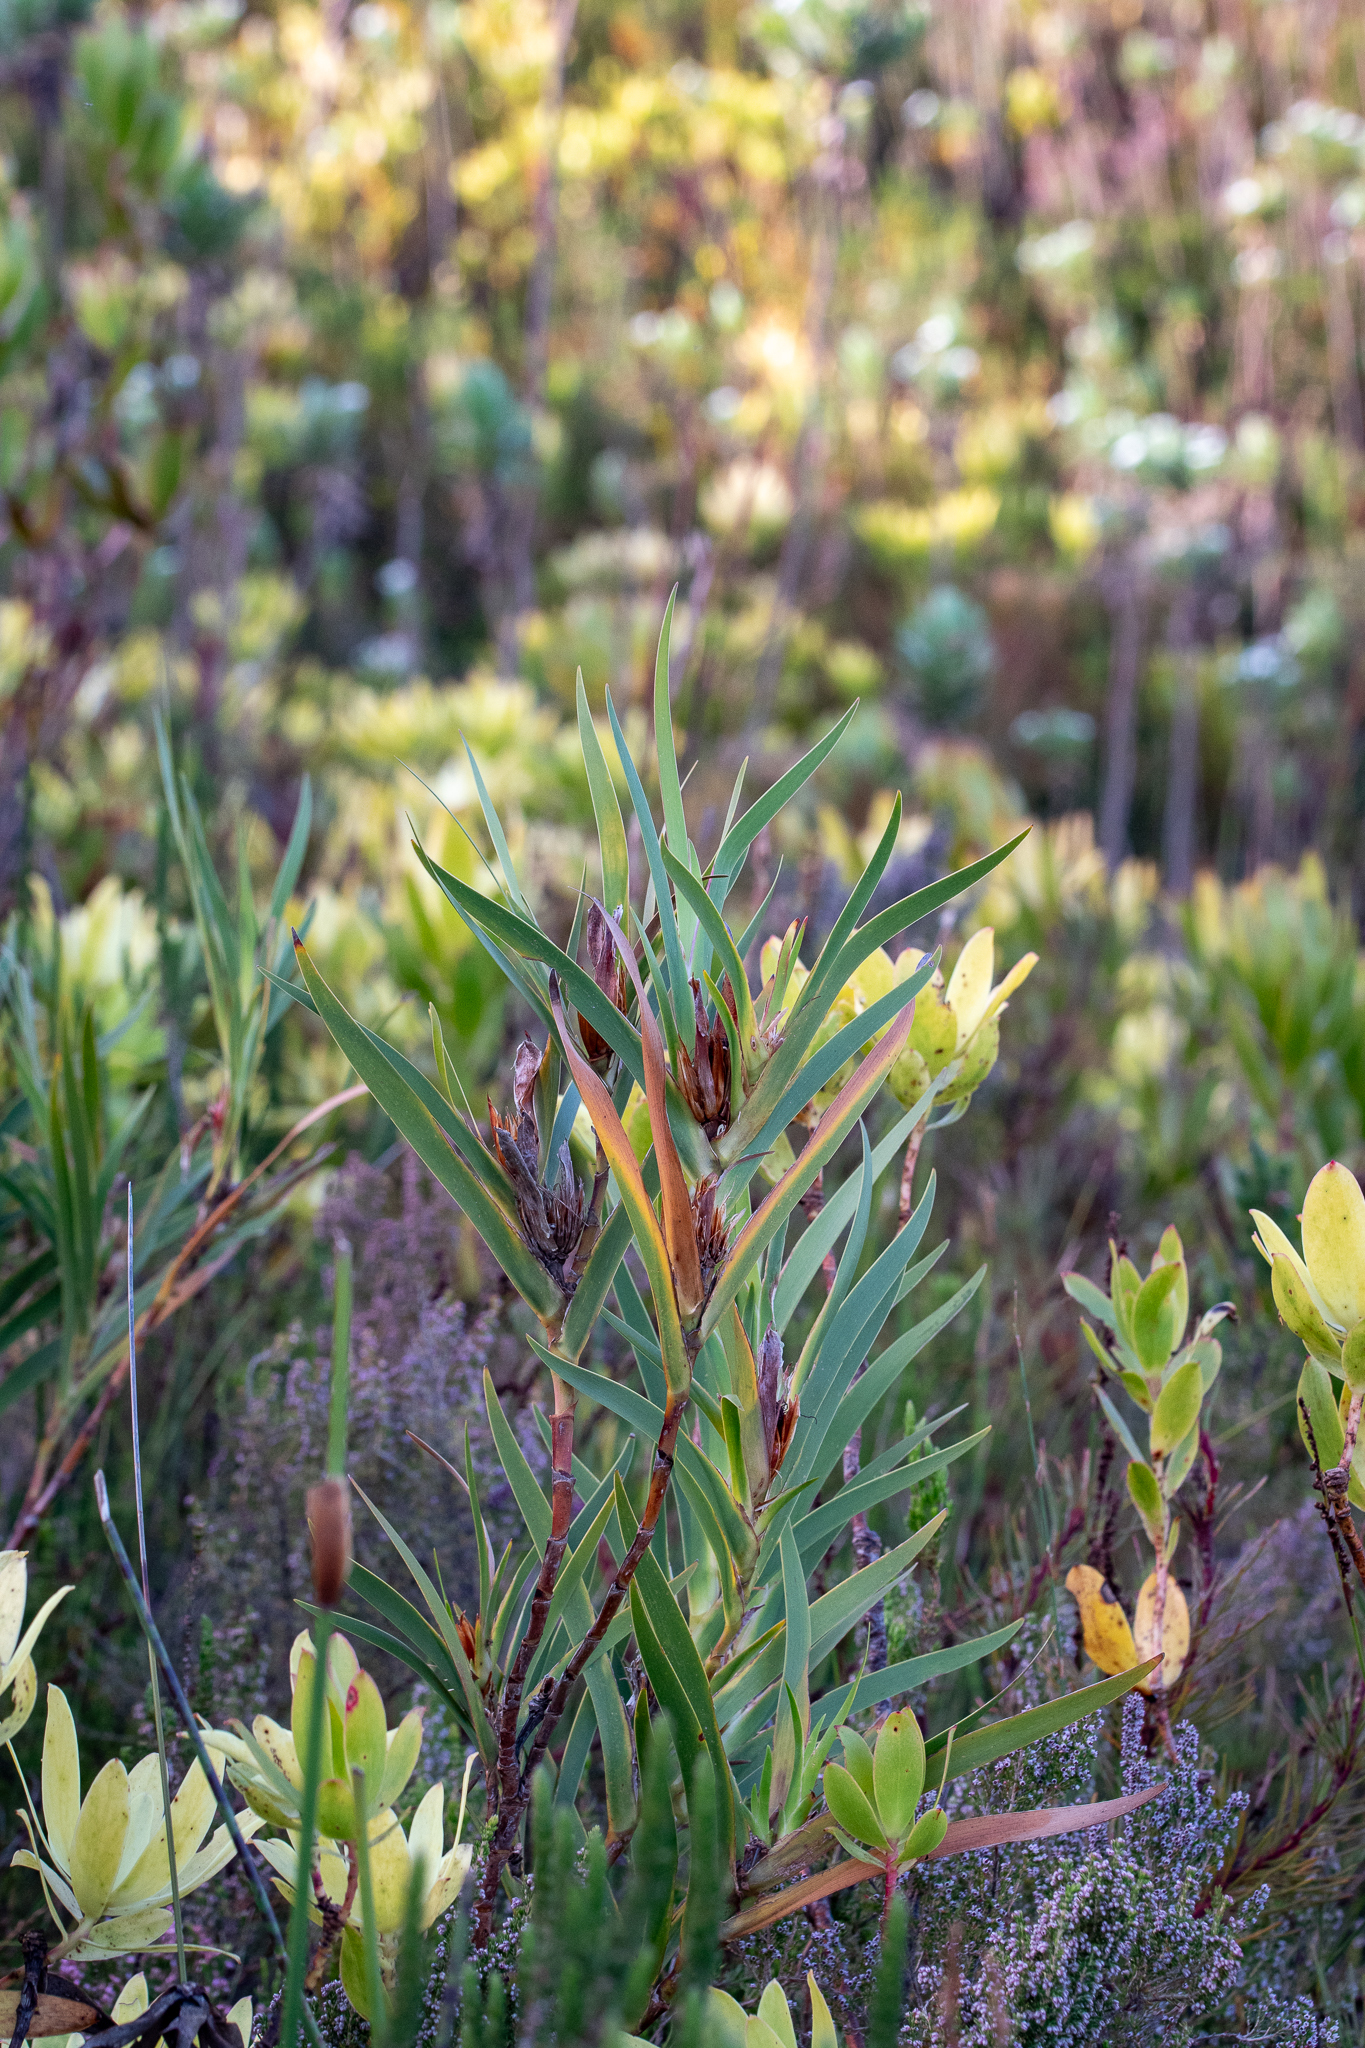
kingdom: Plantae
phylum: Tracheophyta
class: Liliopsida
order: Asparagales
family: Iridaceae
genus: Klattia
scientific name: Klattia stokoei
